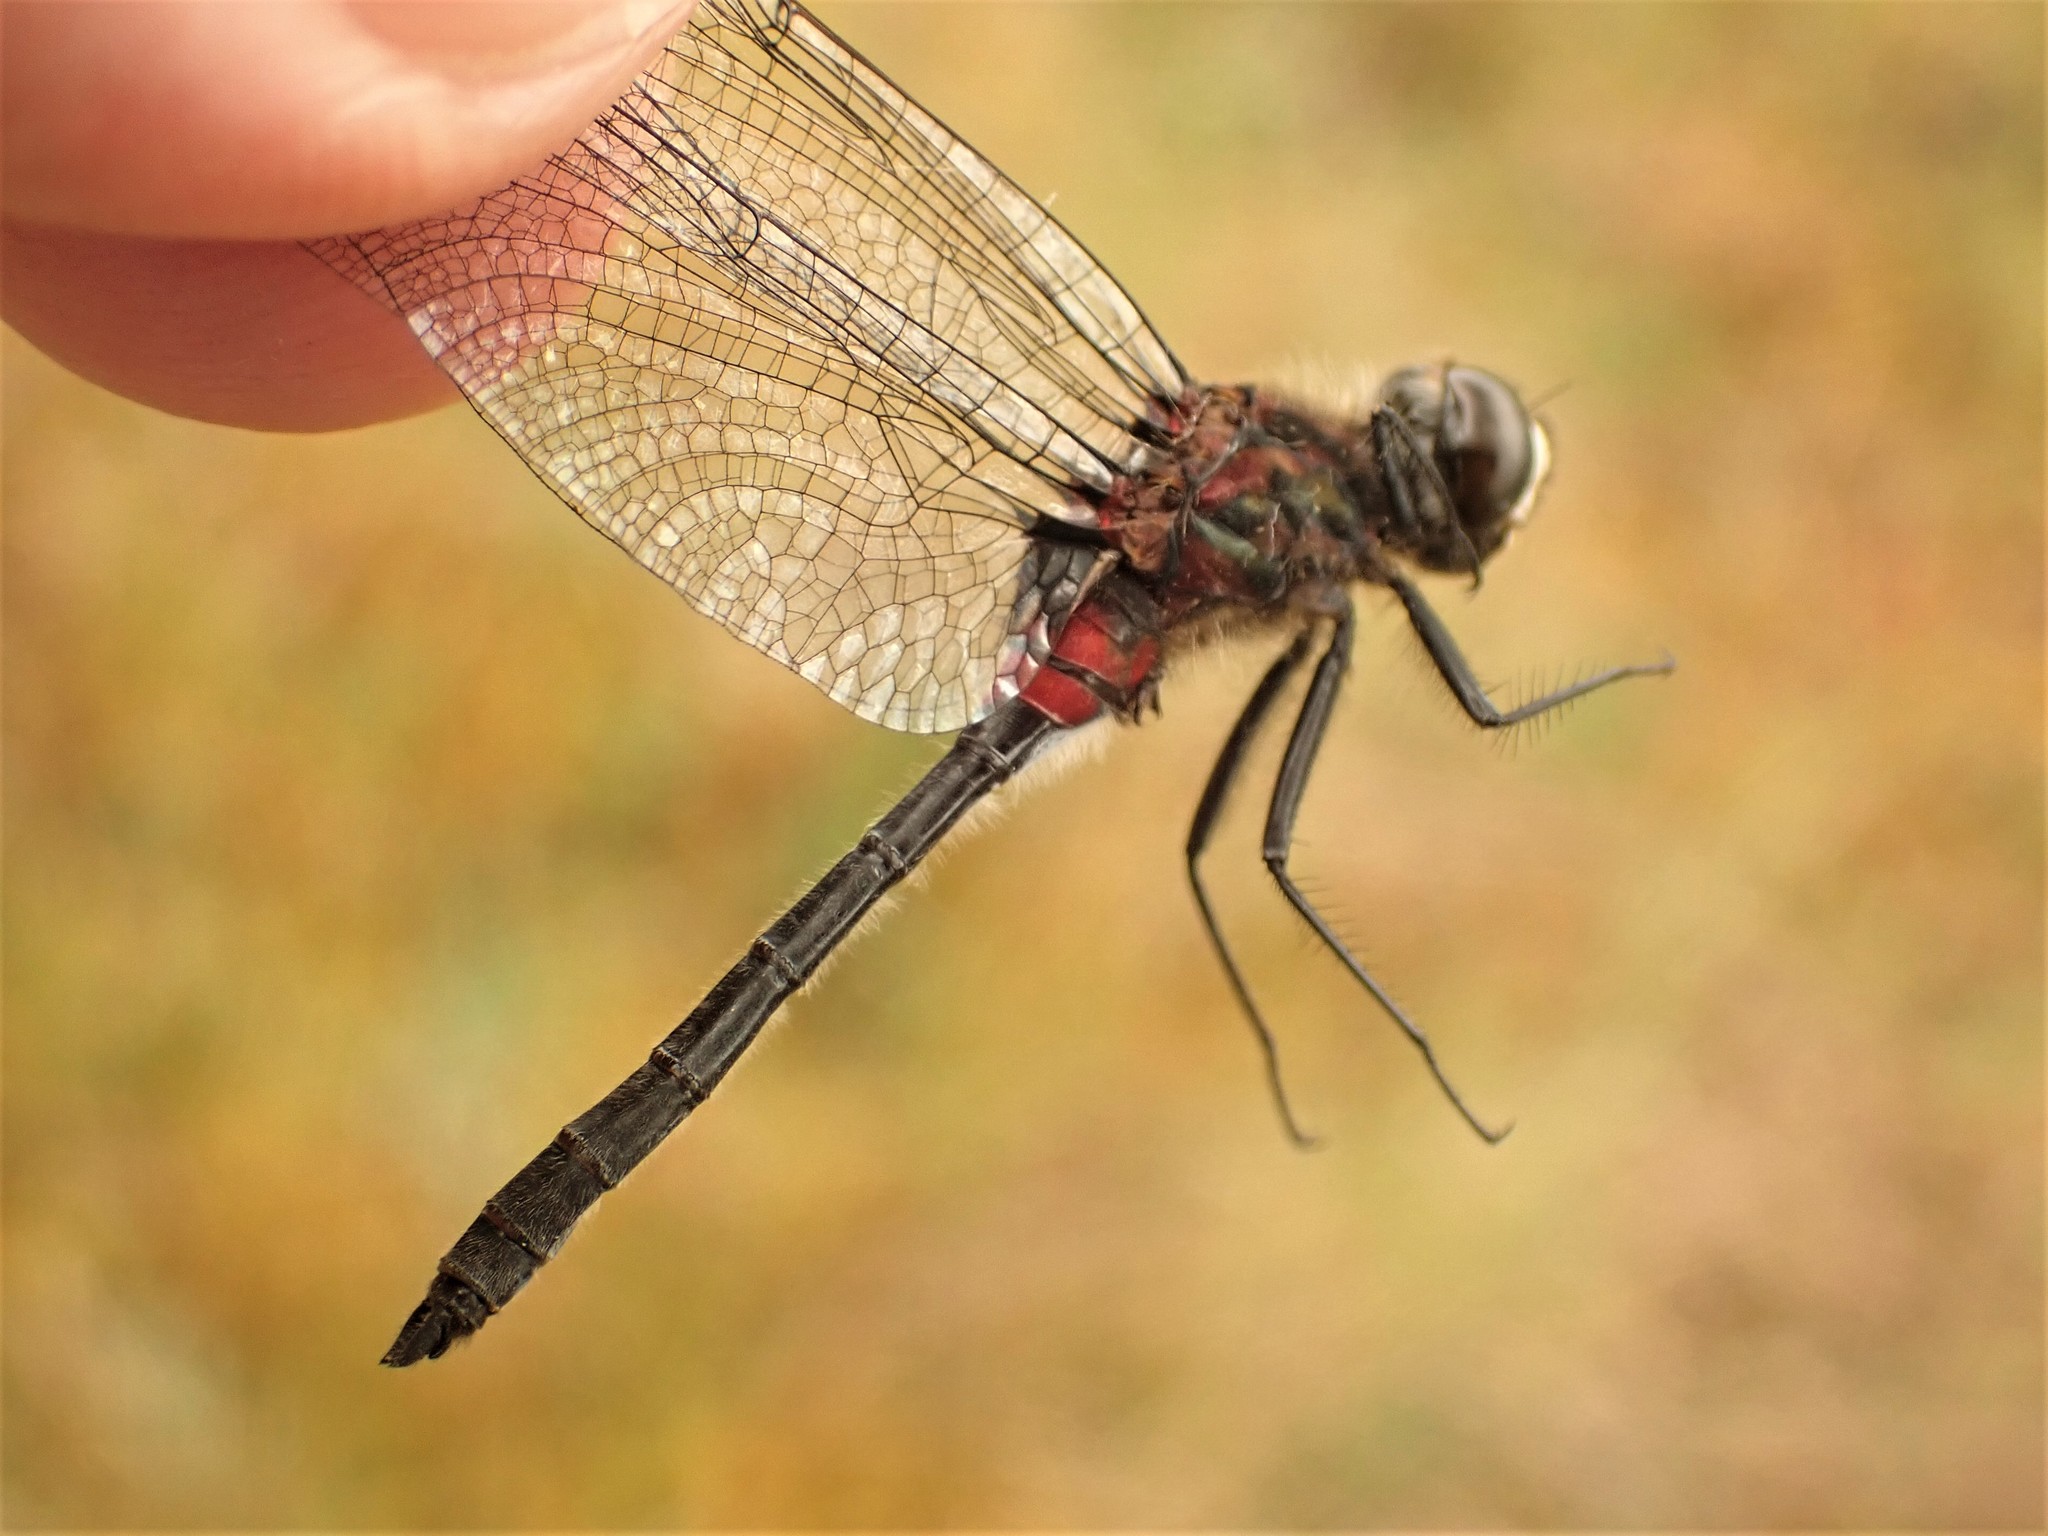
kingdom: Animalia
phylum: Arthropoda
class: Insecta
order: Odonata
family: Libellulidae
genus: Leucorrhinia
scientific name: Leucorrhinia glacialis
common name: Crimson-ringed whiteface
